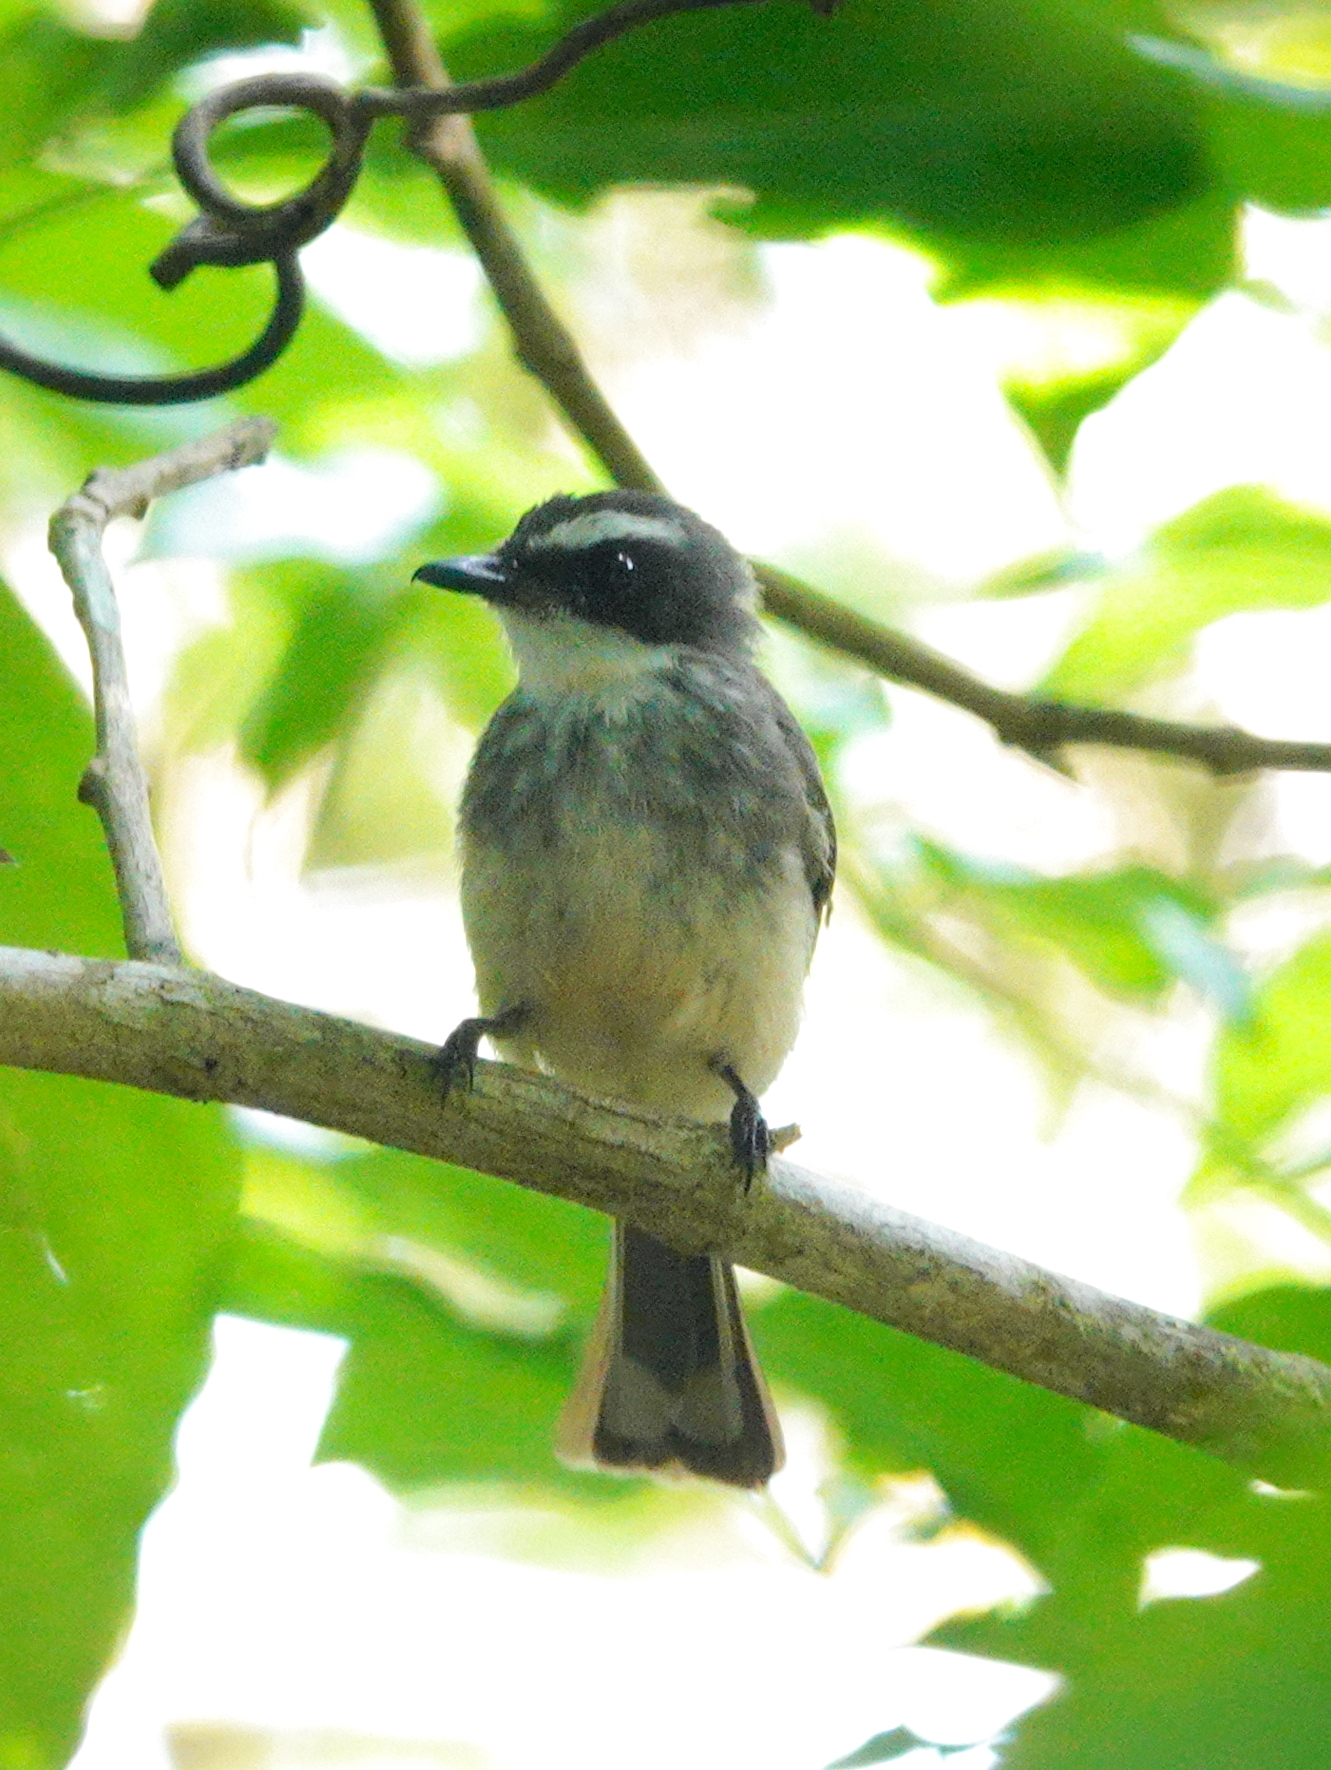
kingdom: Animalia
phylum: Chordata
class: Aves
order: Passeriformes
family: Rhipiduridae
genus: Rhipidura
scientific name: Rhipidura rufiventris
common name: Northern fantail
